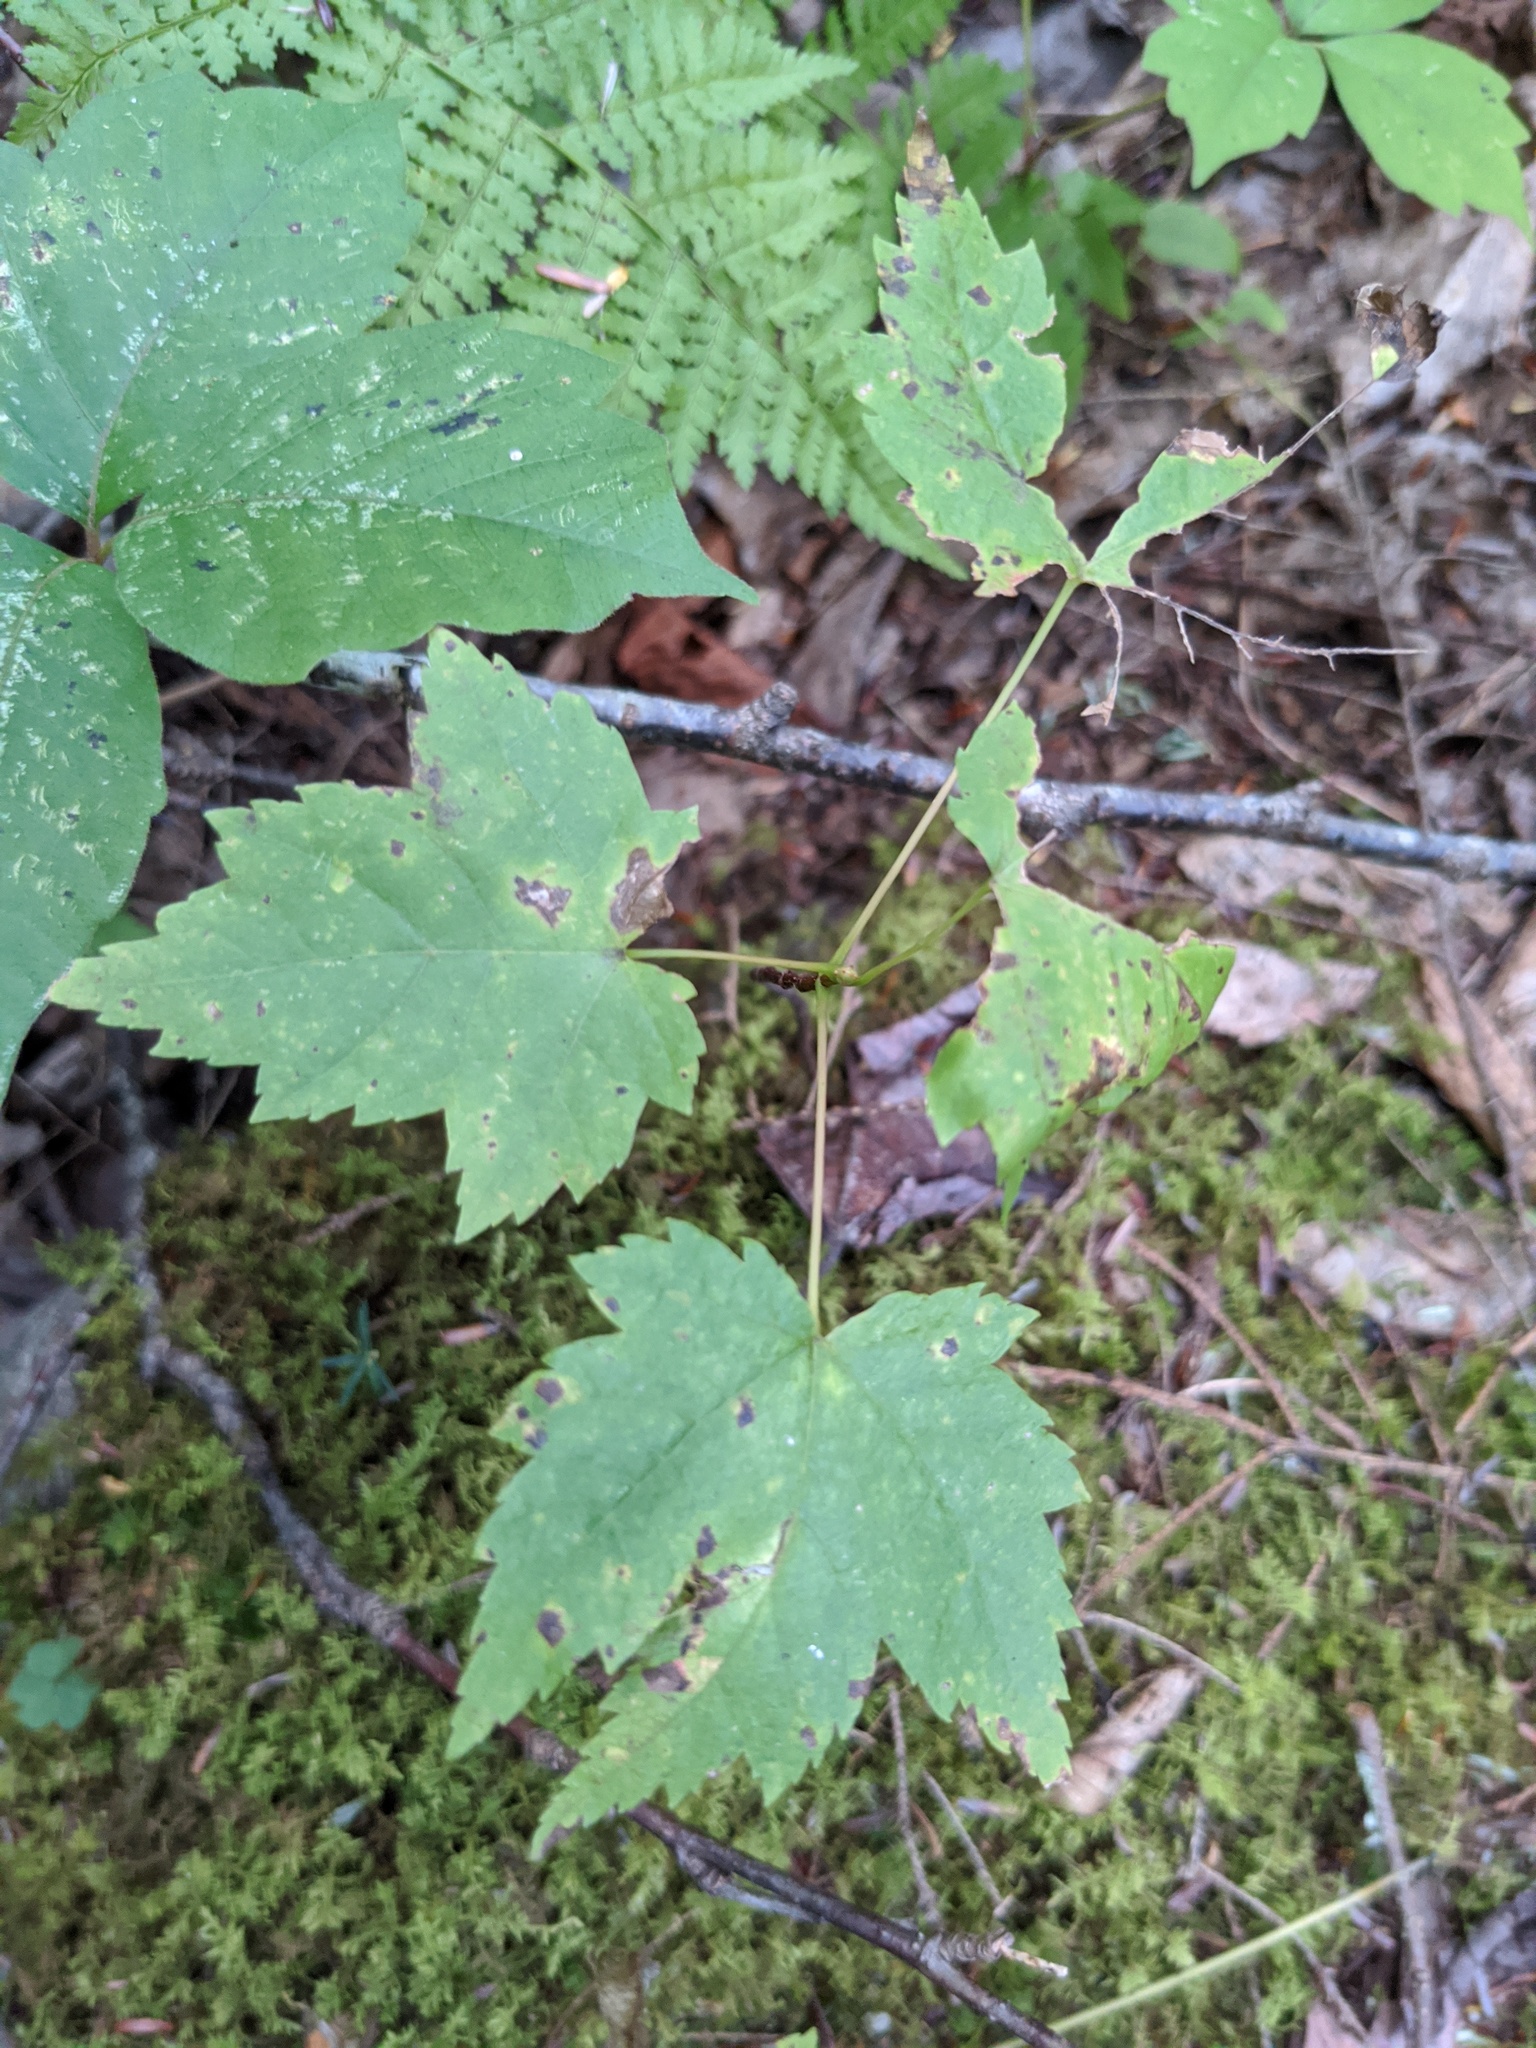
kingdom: Plantae
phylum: Tracheophyta
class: Magnoliopsida
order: Sapindales
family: Sapindaceae
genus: Acer
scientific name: Acer rubrum
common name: Red maple
